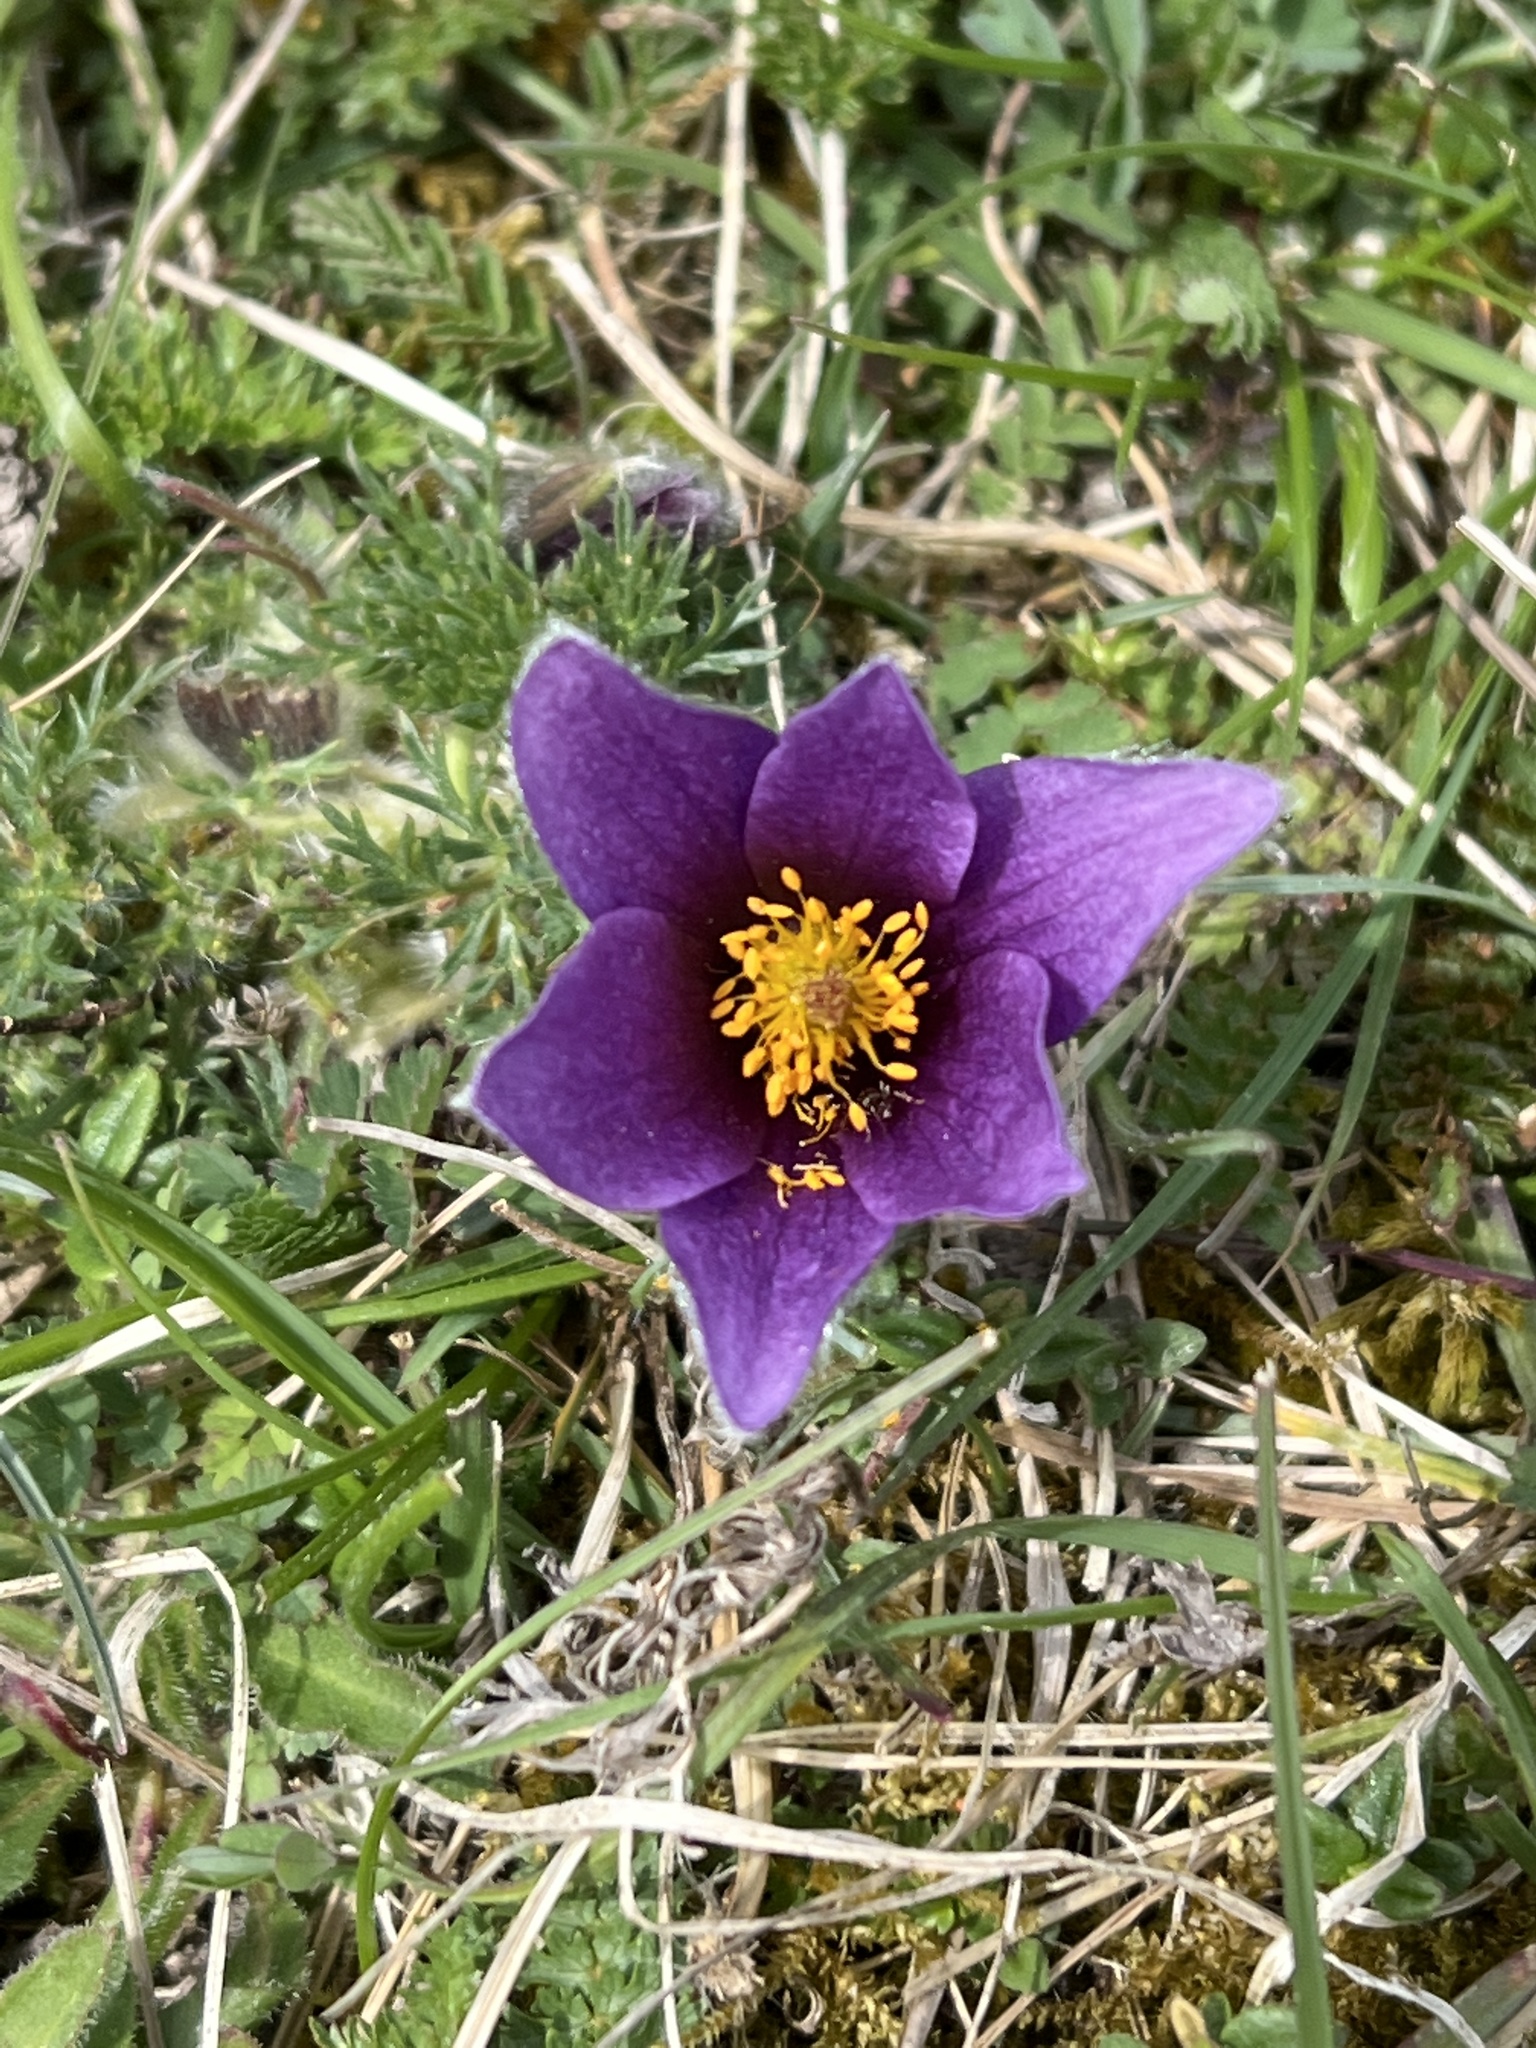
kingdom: Plantae
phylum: Tracheophyta
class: Magnoliopsida
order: Ranunculales
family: Ranunculaceae
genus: Pulsatilla
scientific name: Pulsatilla vulgaris
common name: Pasqueflower
